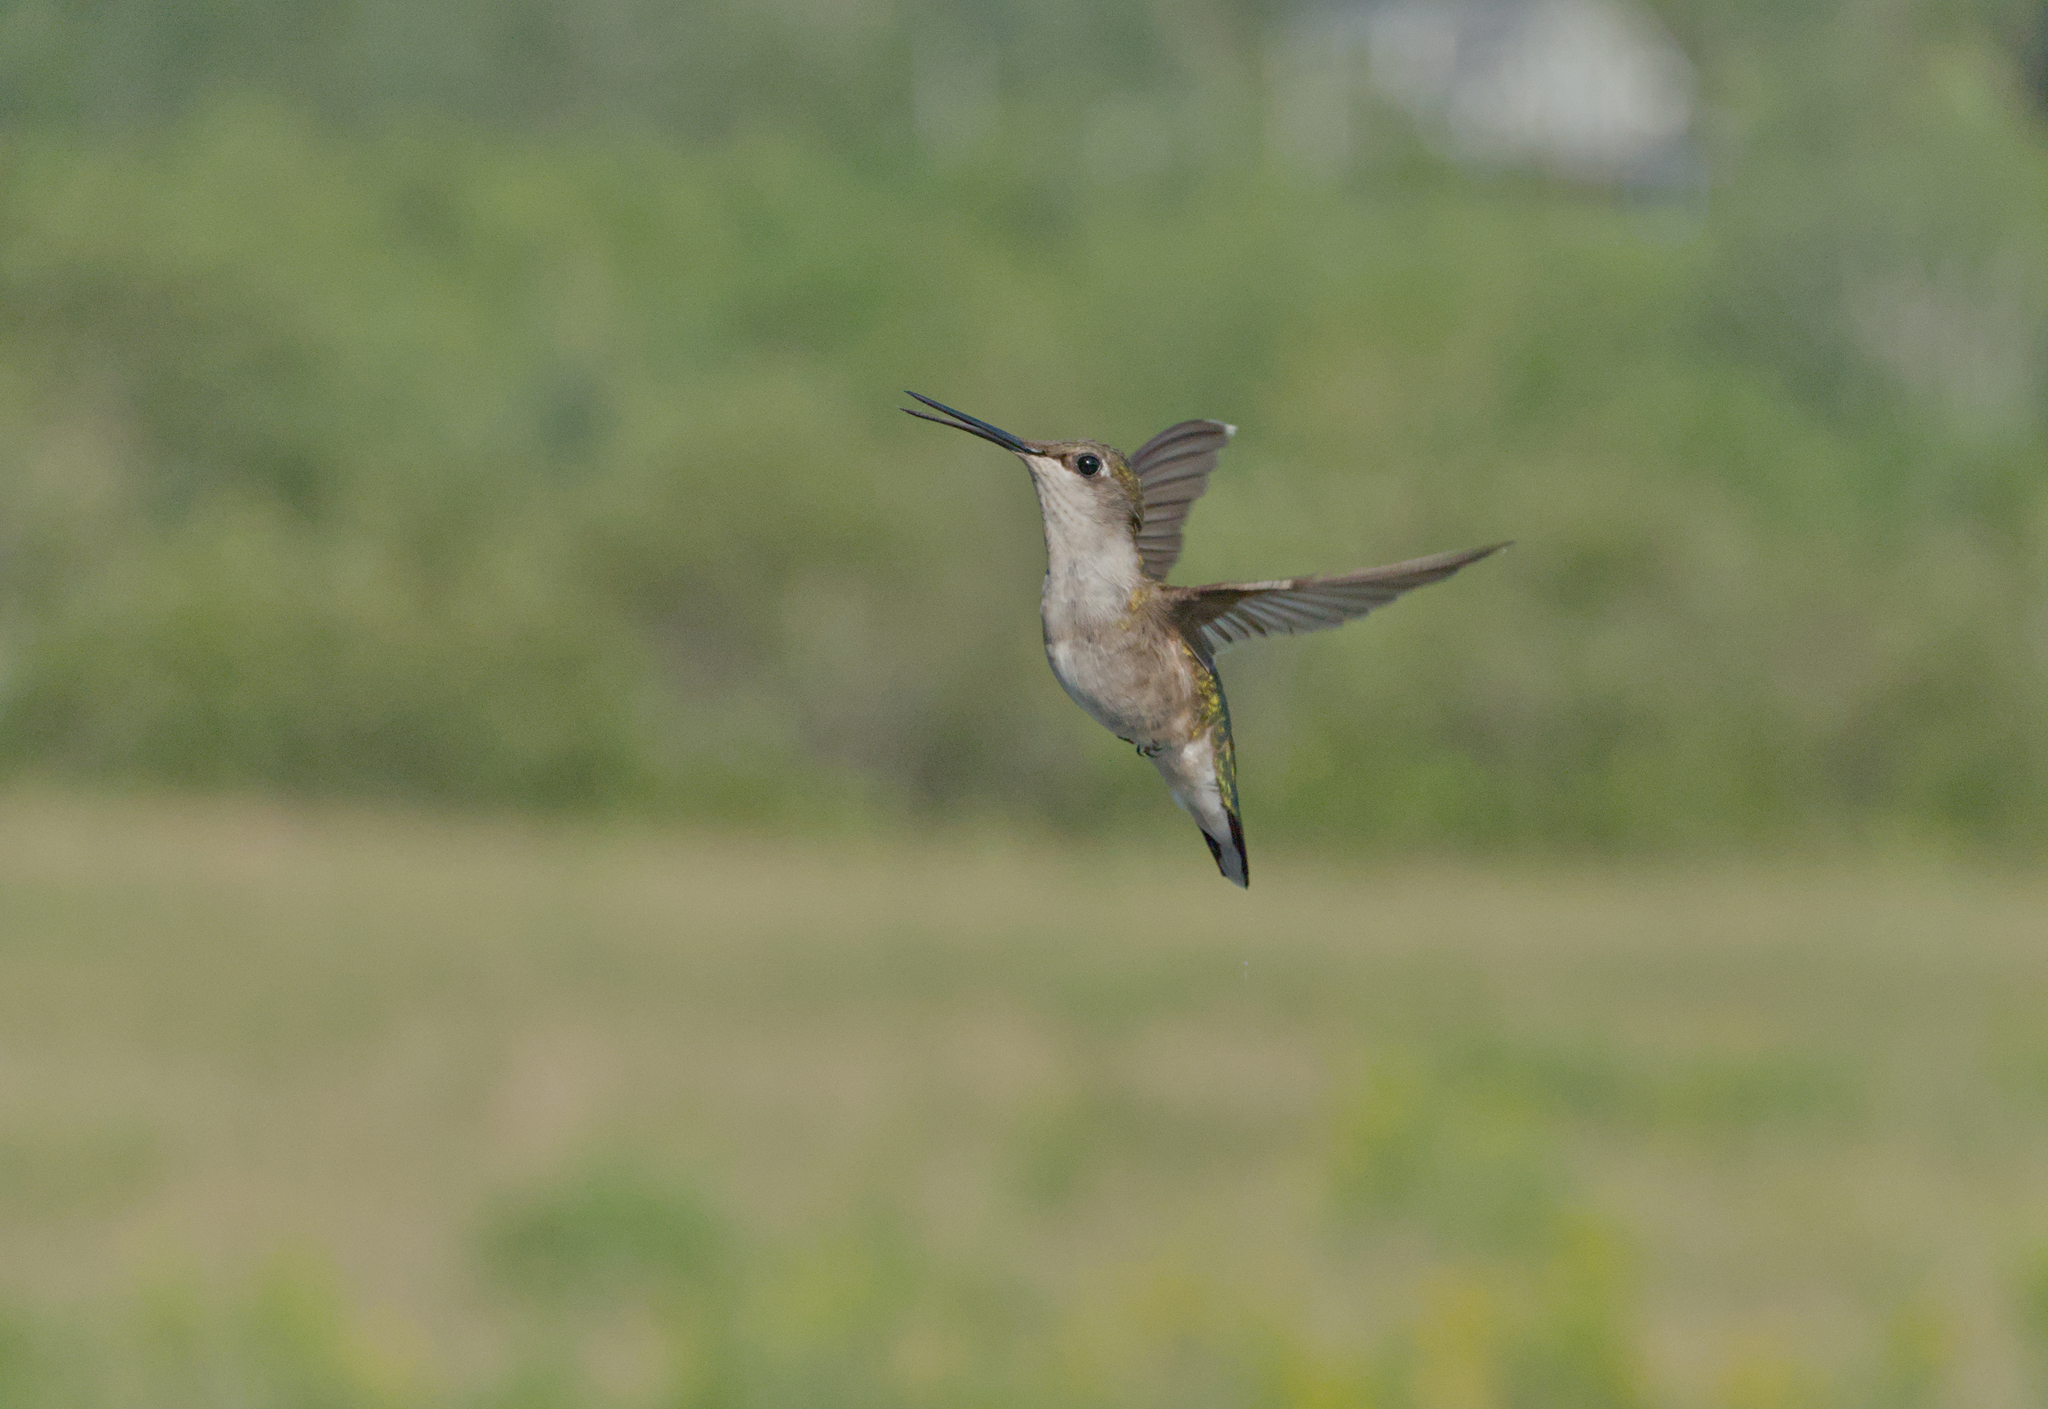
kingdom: Animalia
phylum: Chordata
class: Aves
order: Apodiformes
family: Trochilidae
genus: Archilochus
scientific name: Archilochus colubris
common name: Ruby-throated hummingbird
